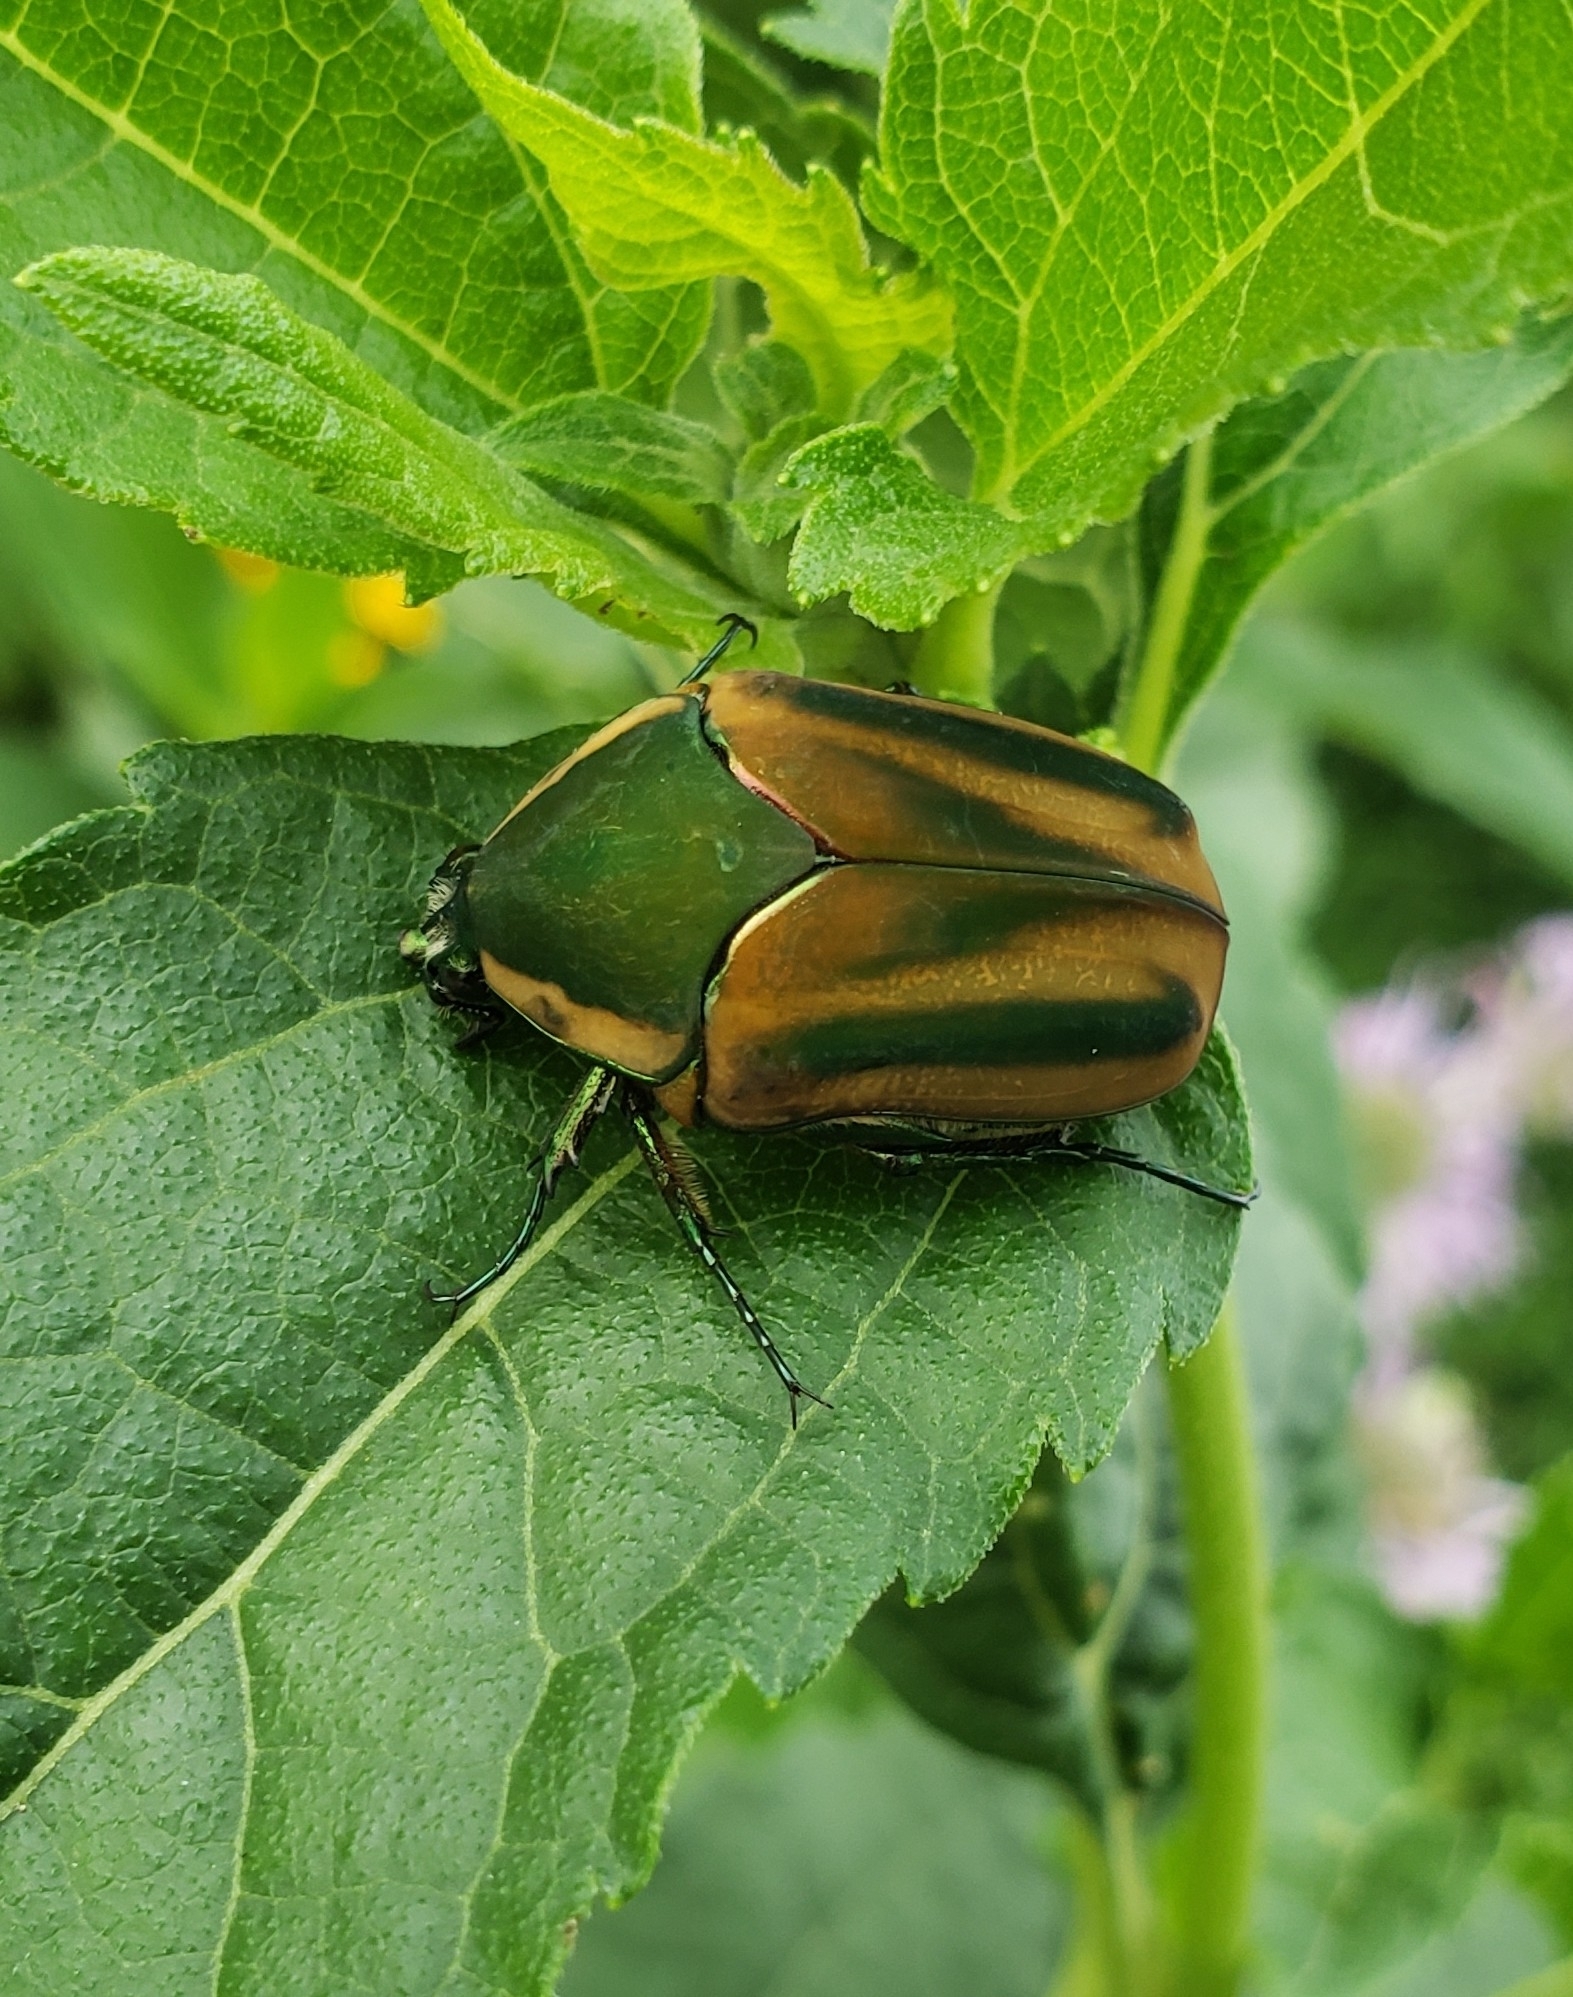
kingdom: Animalia
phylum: Arthropoda
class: Insecta
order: Coleoptera
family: Scarabaeidae
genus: Cotinis
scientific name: Cotinis nitida
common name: Common green june beetle
